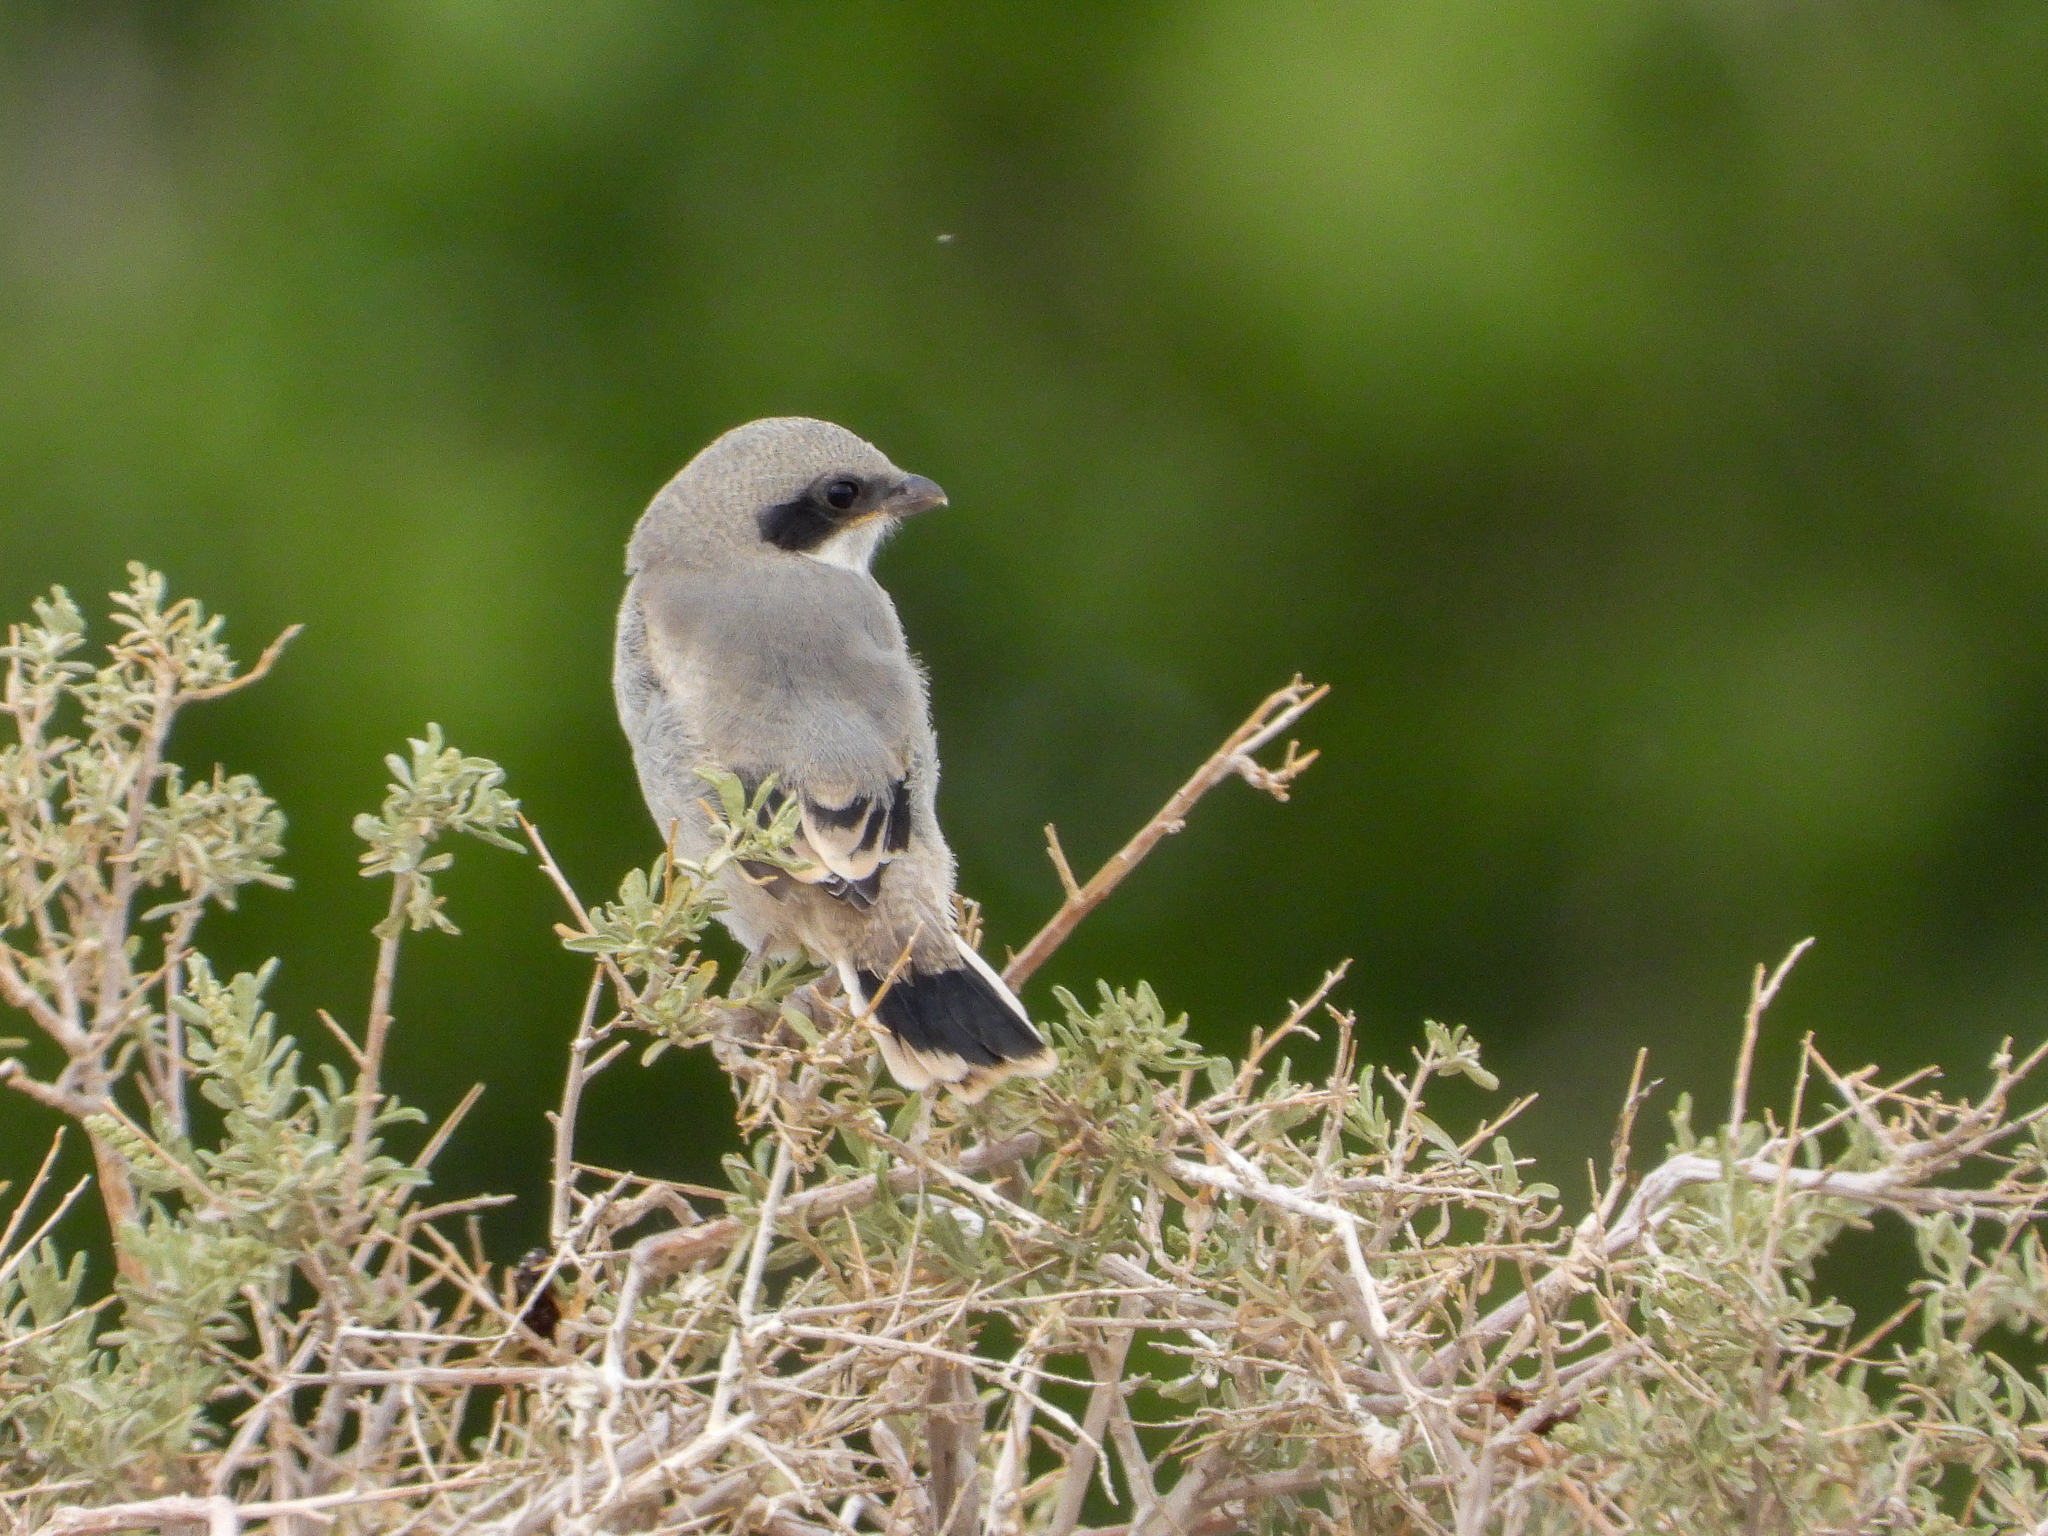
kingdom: Animalia
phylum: Chordata
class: Aves
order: Passeriformes
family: Laniidae
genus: Lanius
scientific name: Lanius ludovicianus
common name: Loggerhead shrike
